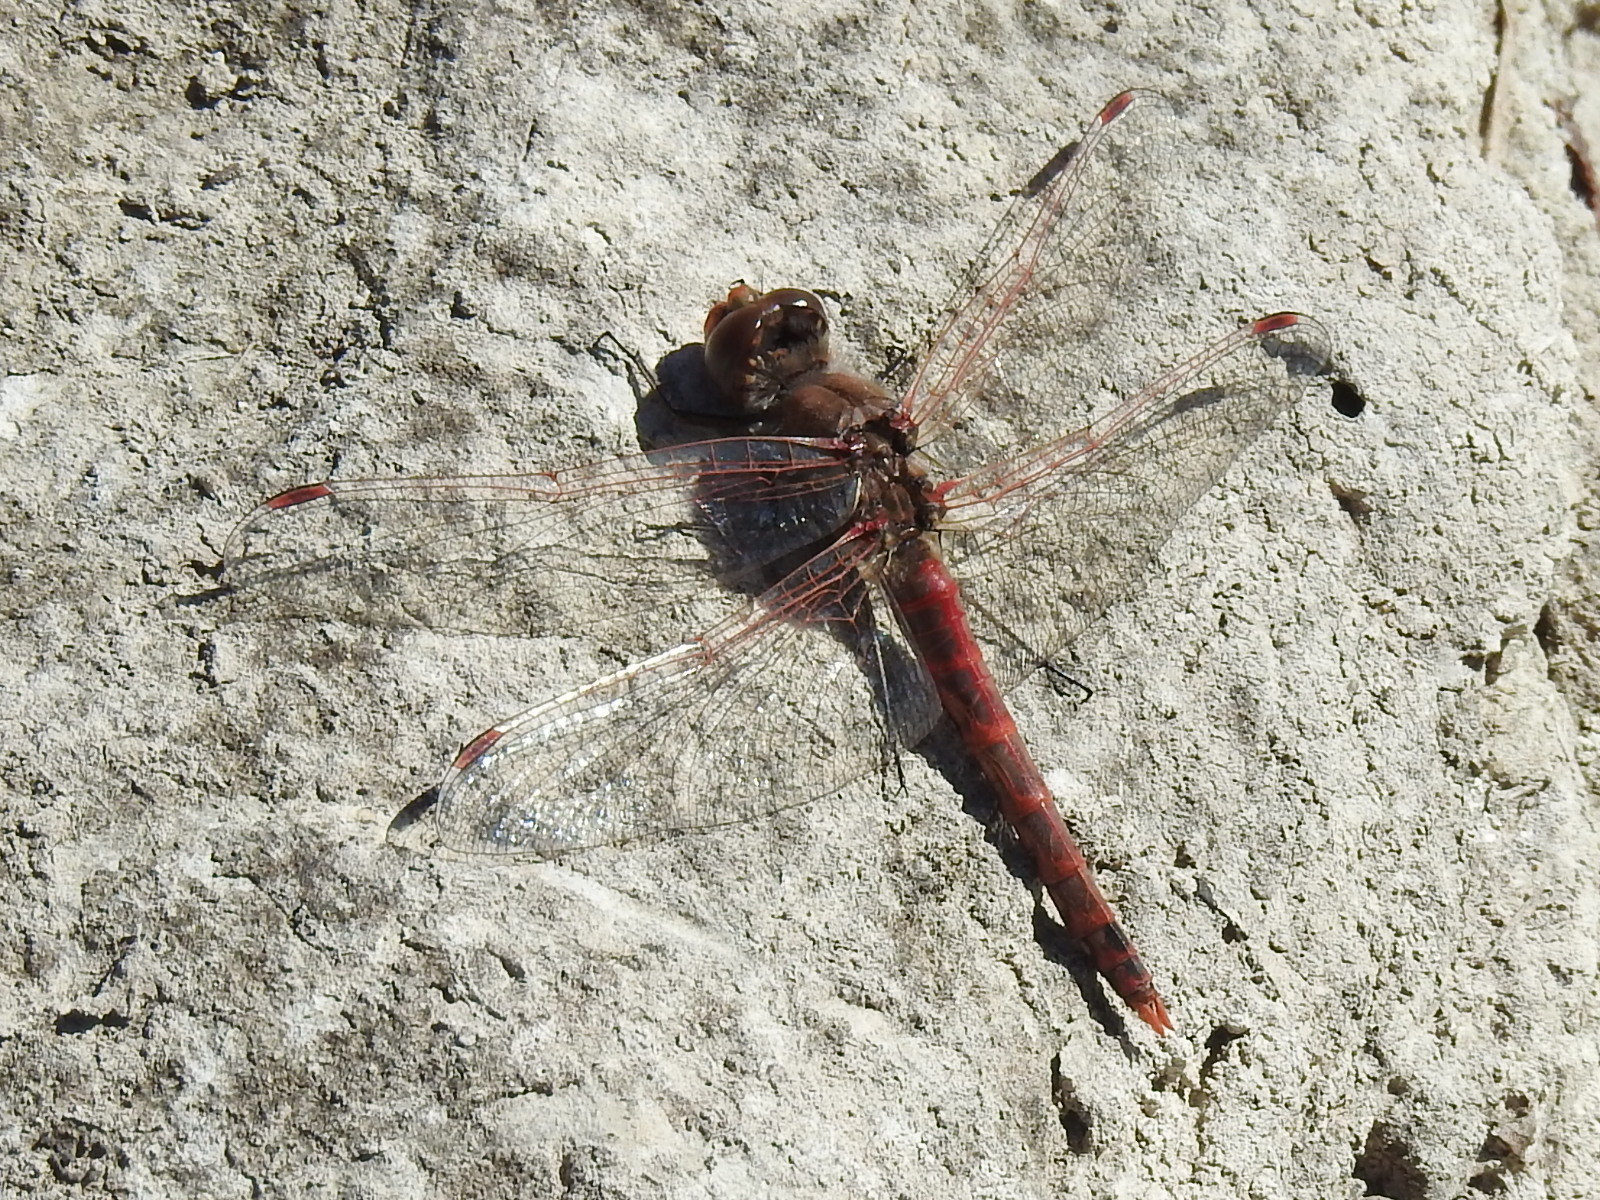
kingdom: Animalia
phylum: Arthropoda
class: Insecta
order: Odonata
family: Libellulidae
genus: Sympetrum
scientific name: Sympetrum corruptum
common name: Variegated meadowhawk
